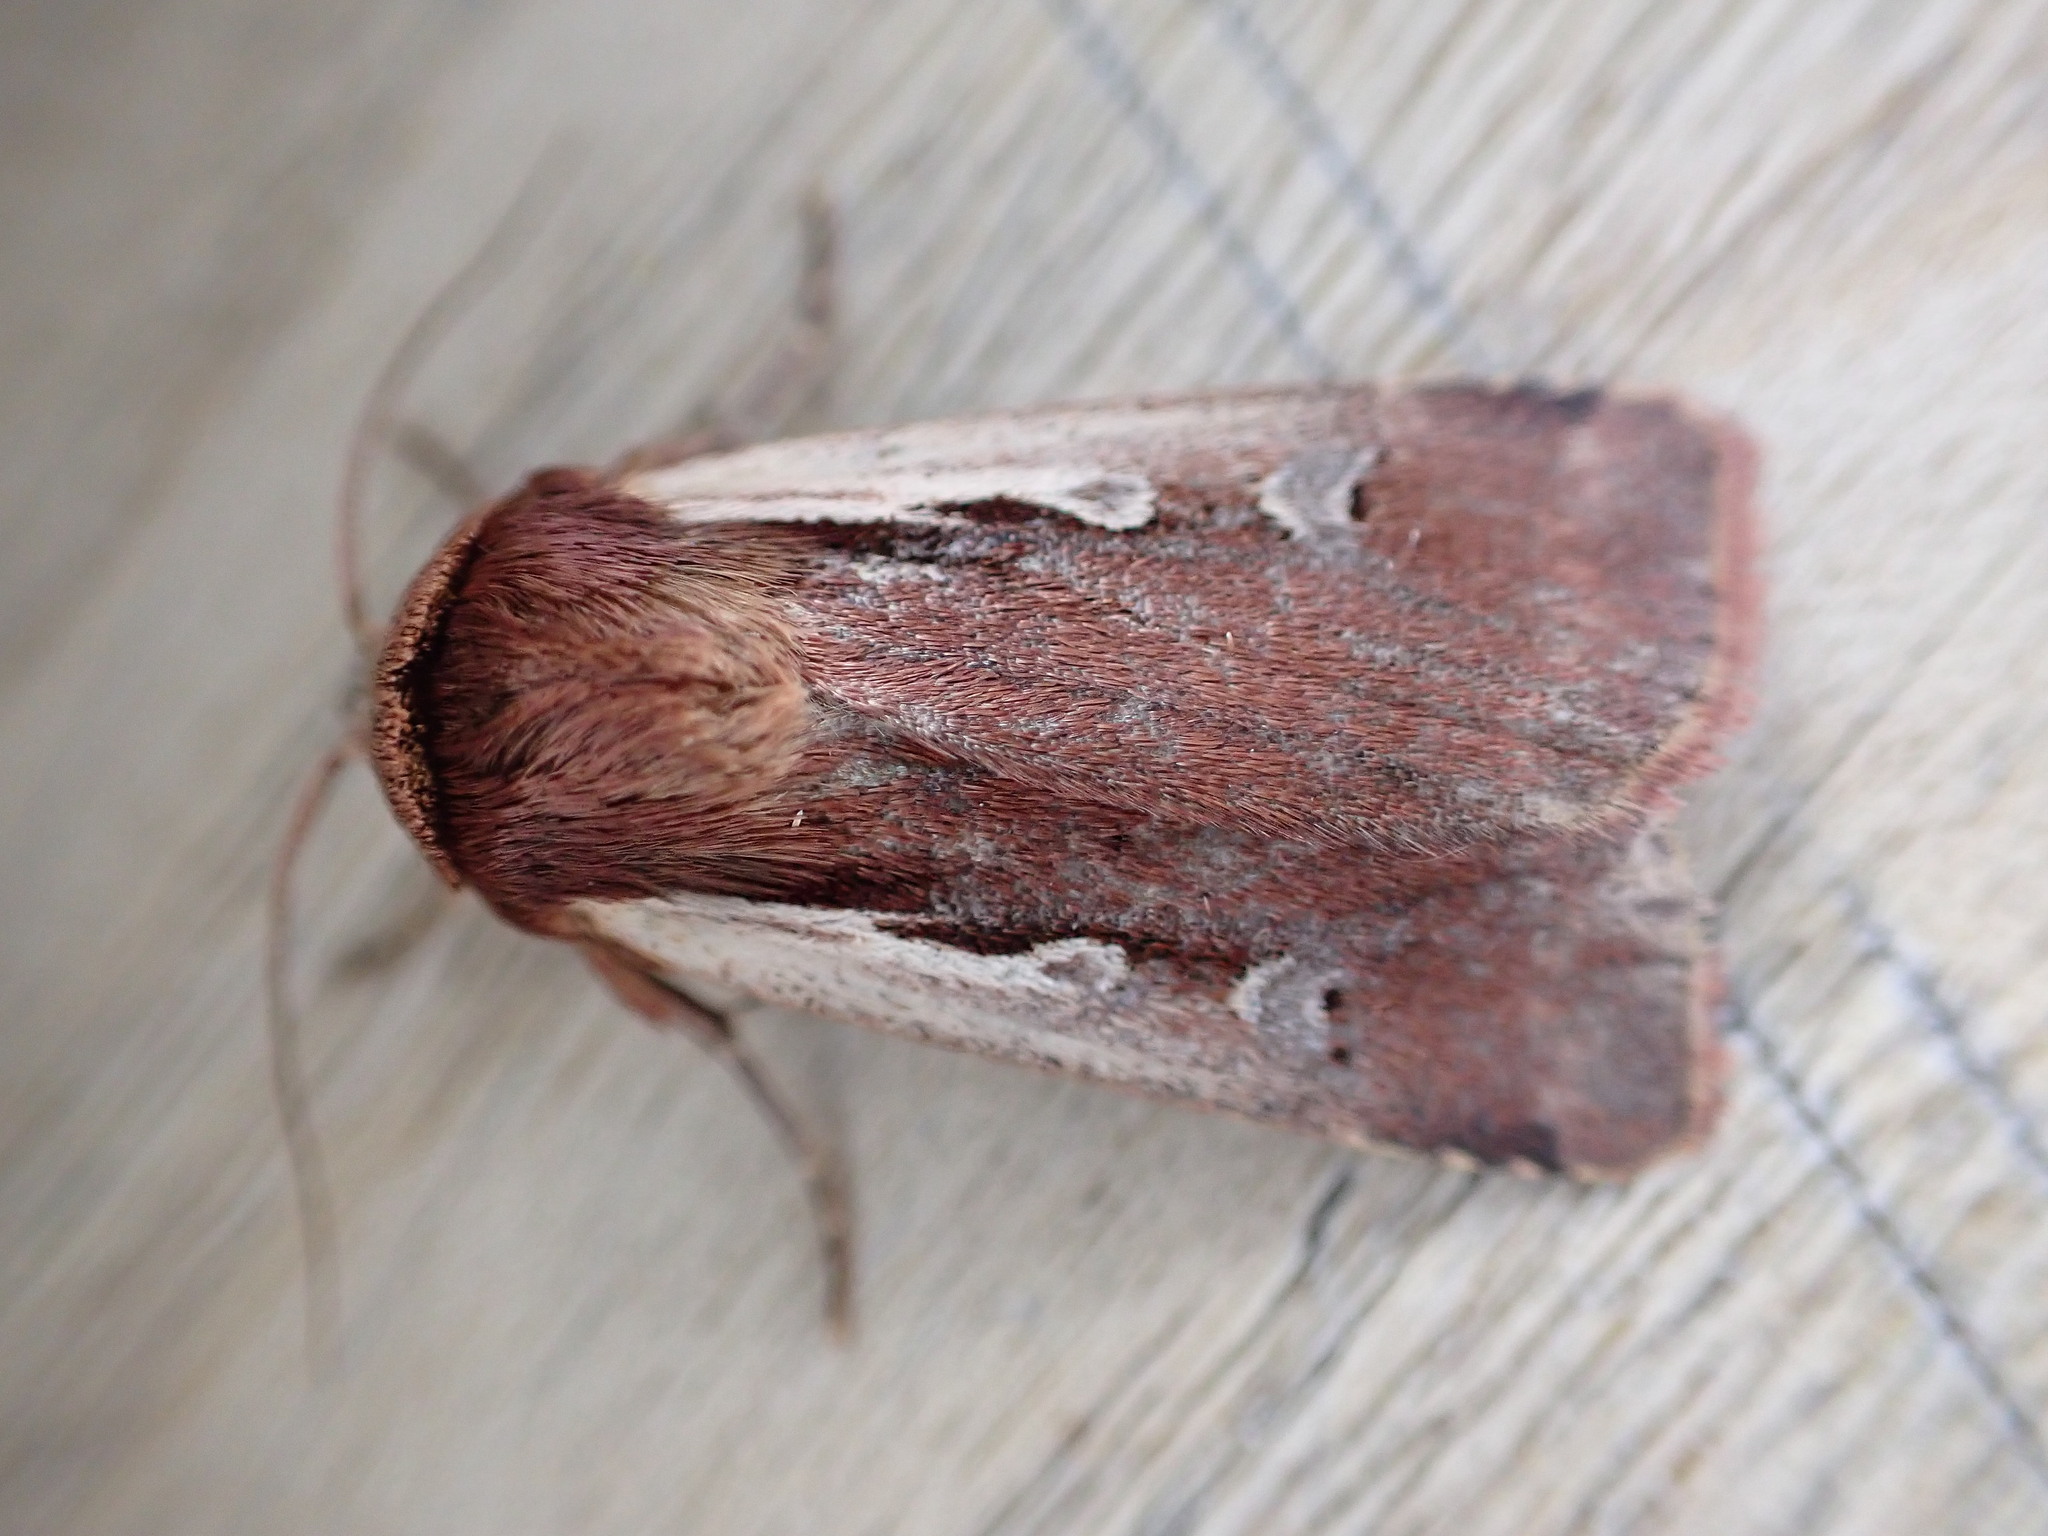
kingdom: Animalia
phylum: Arthropoda
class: Insecta
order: Lepidoptera
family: Noctuidae
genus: Ochropleura
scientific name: Ochropleura plecta
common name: Flame shoulder
